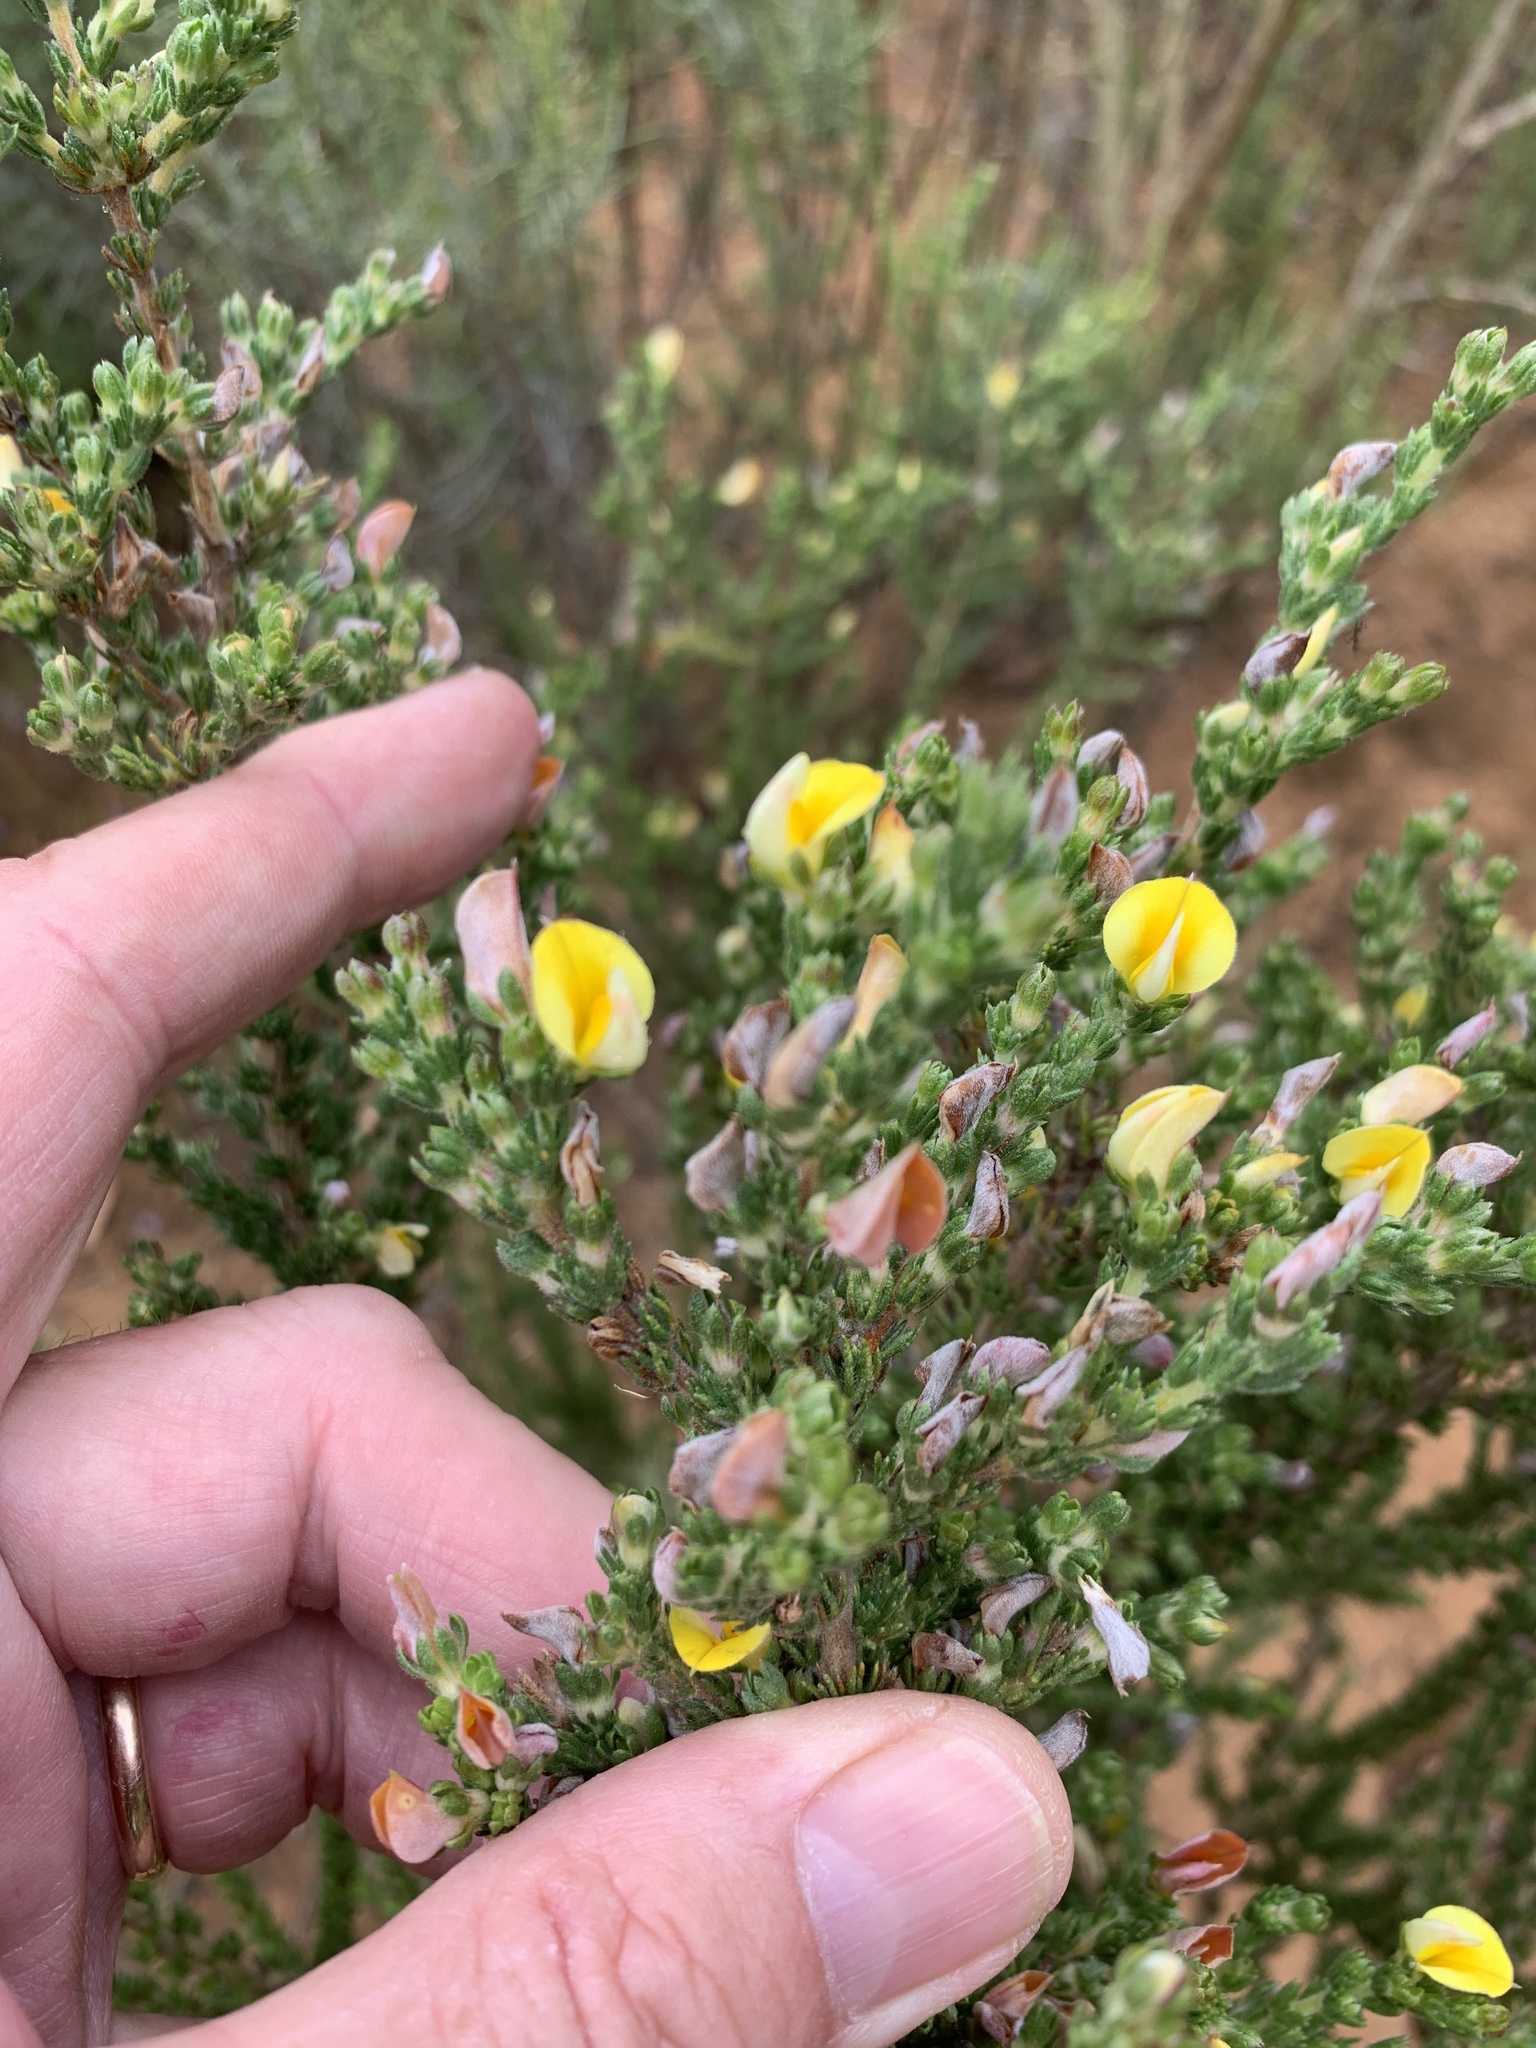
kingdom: Plantae
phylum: Tracheophyta
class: Magnoliopsida
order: Fabales
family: Fabaceae
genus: Aspalathus
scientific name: Aspalathus cymbiformis
